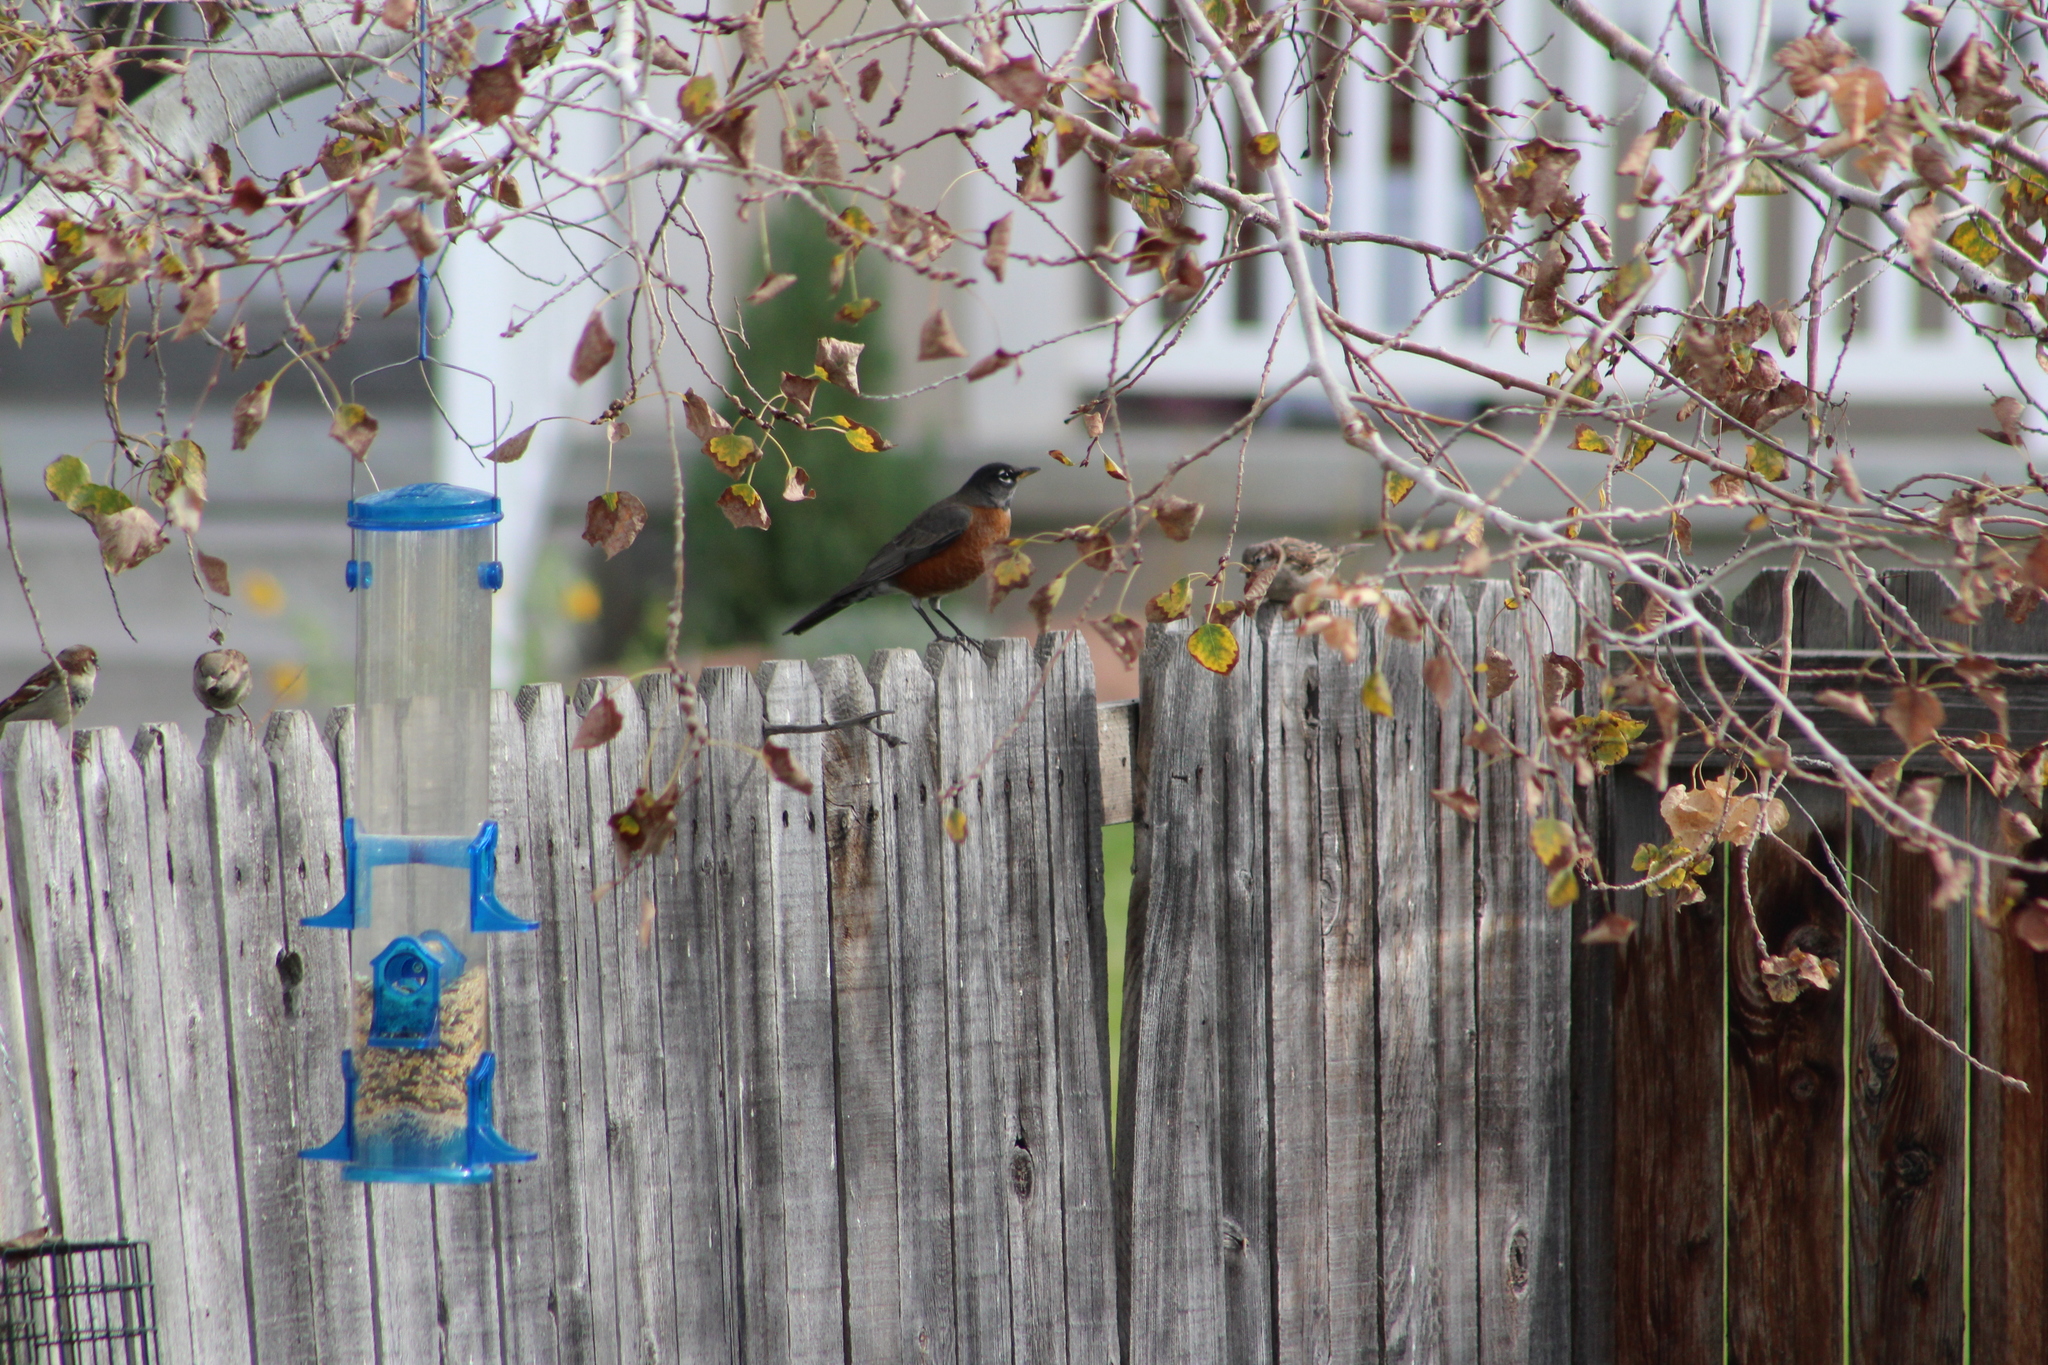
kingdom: Animalia
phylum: Chordata
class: Aves
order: Passeriformes
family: Turdidae
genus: Turdus
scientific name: Turdus migratorius
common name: American robin
